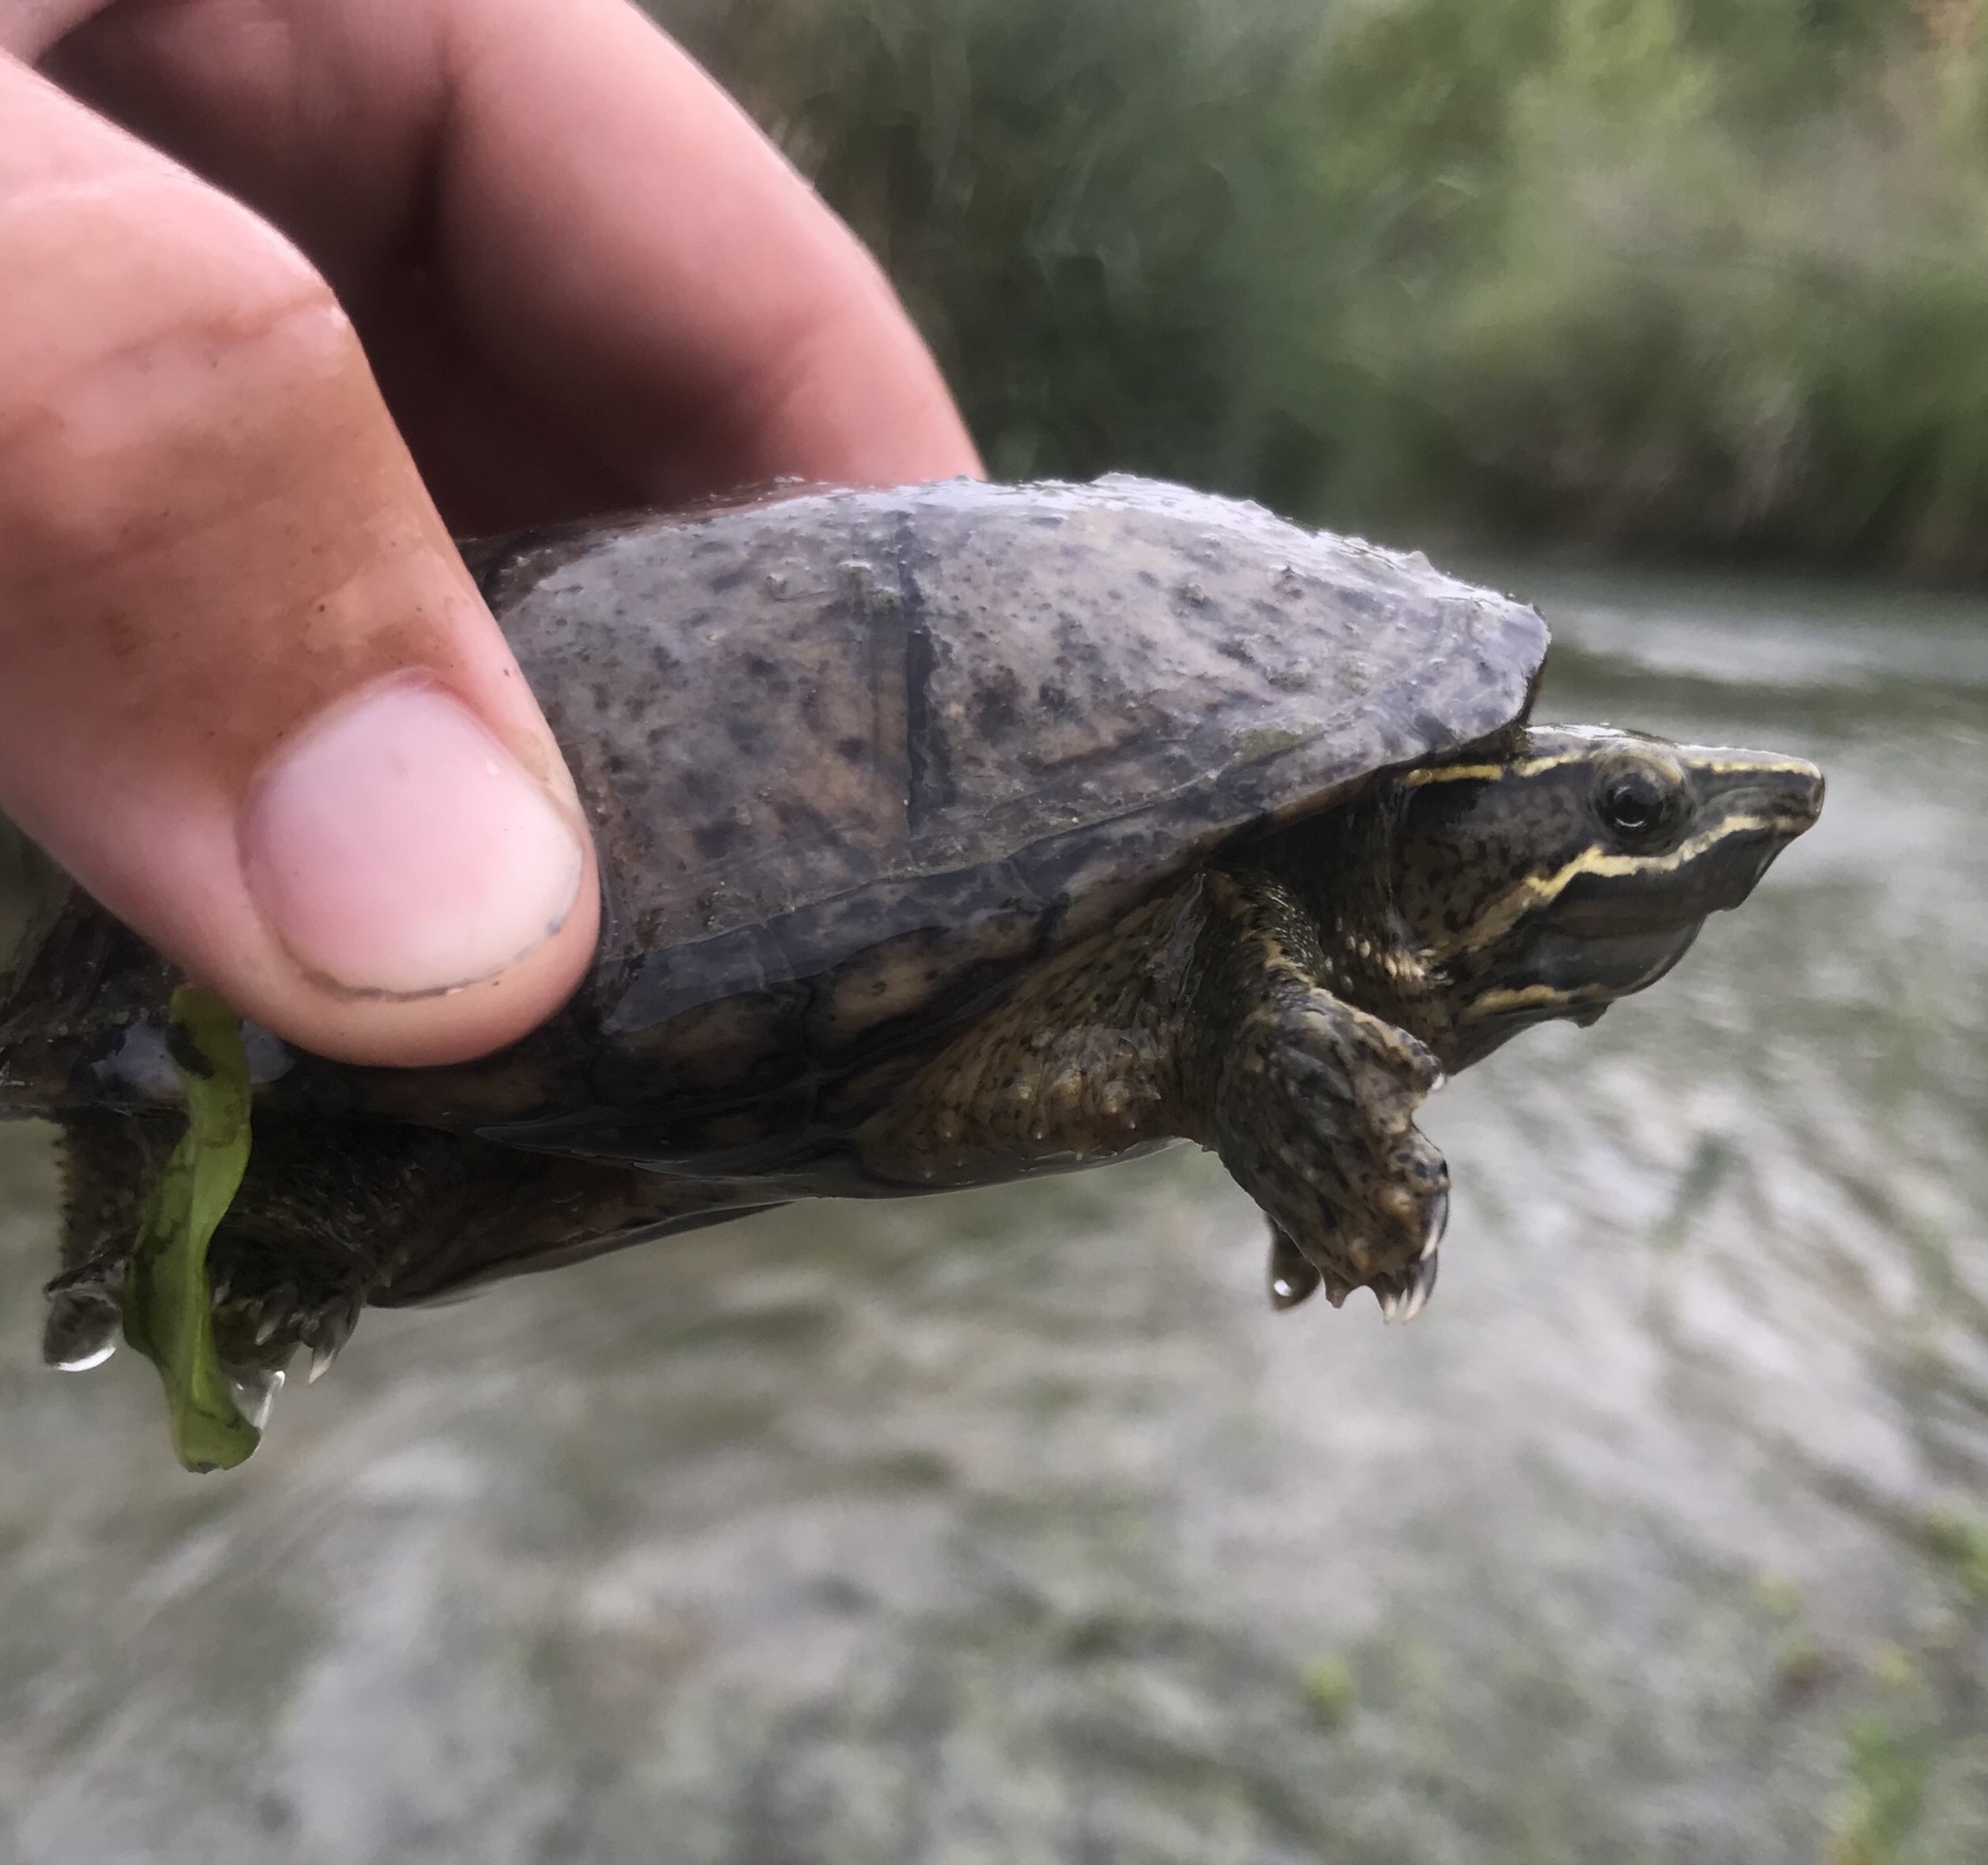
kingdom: Animalia
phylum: Chordata
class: Testudines
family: Kinosternidae
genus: Sternotherus
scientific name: Sternotherus odoratus
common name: Common musk turtle
